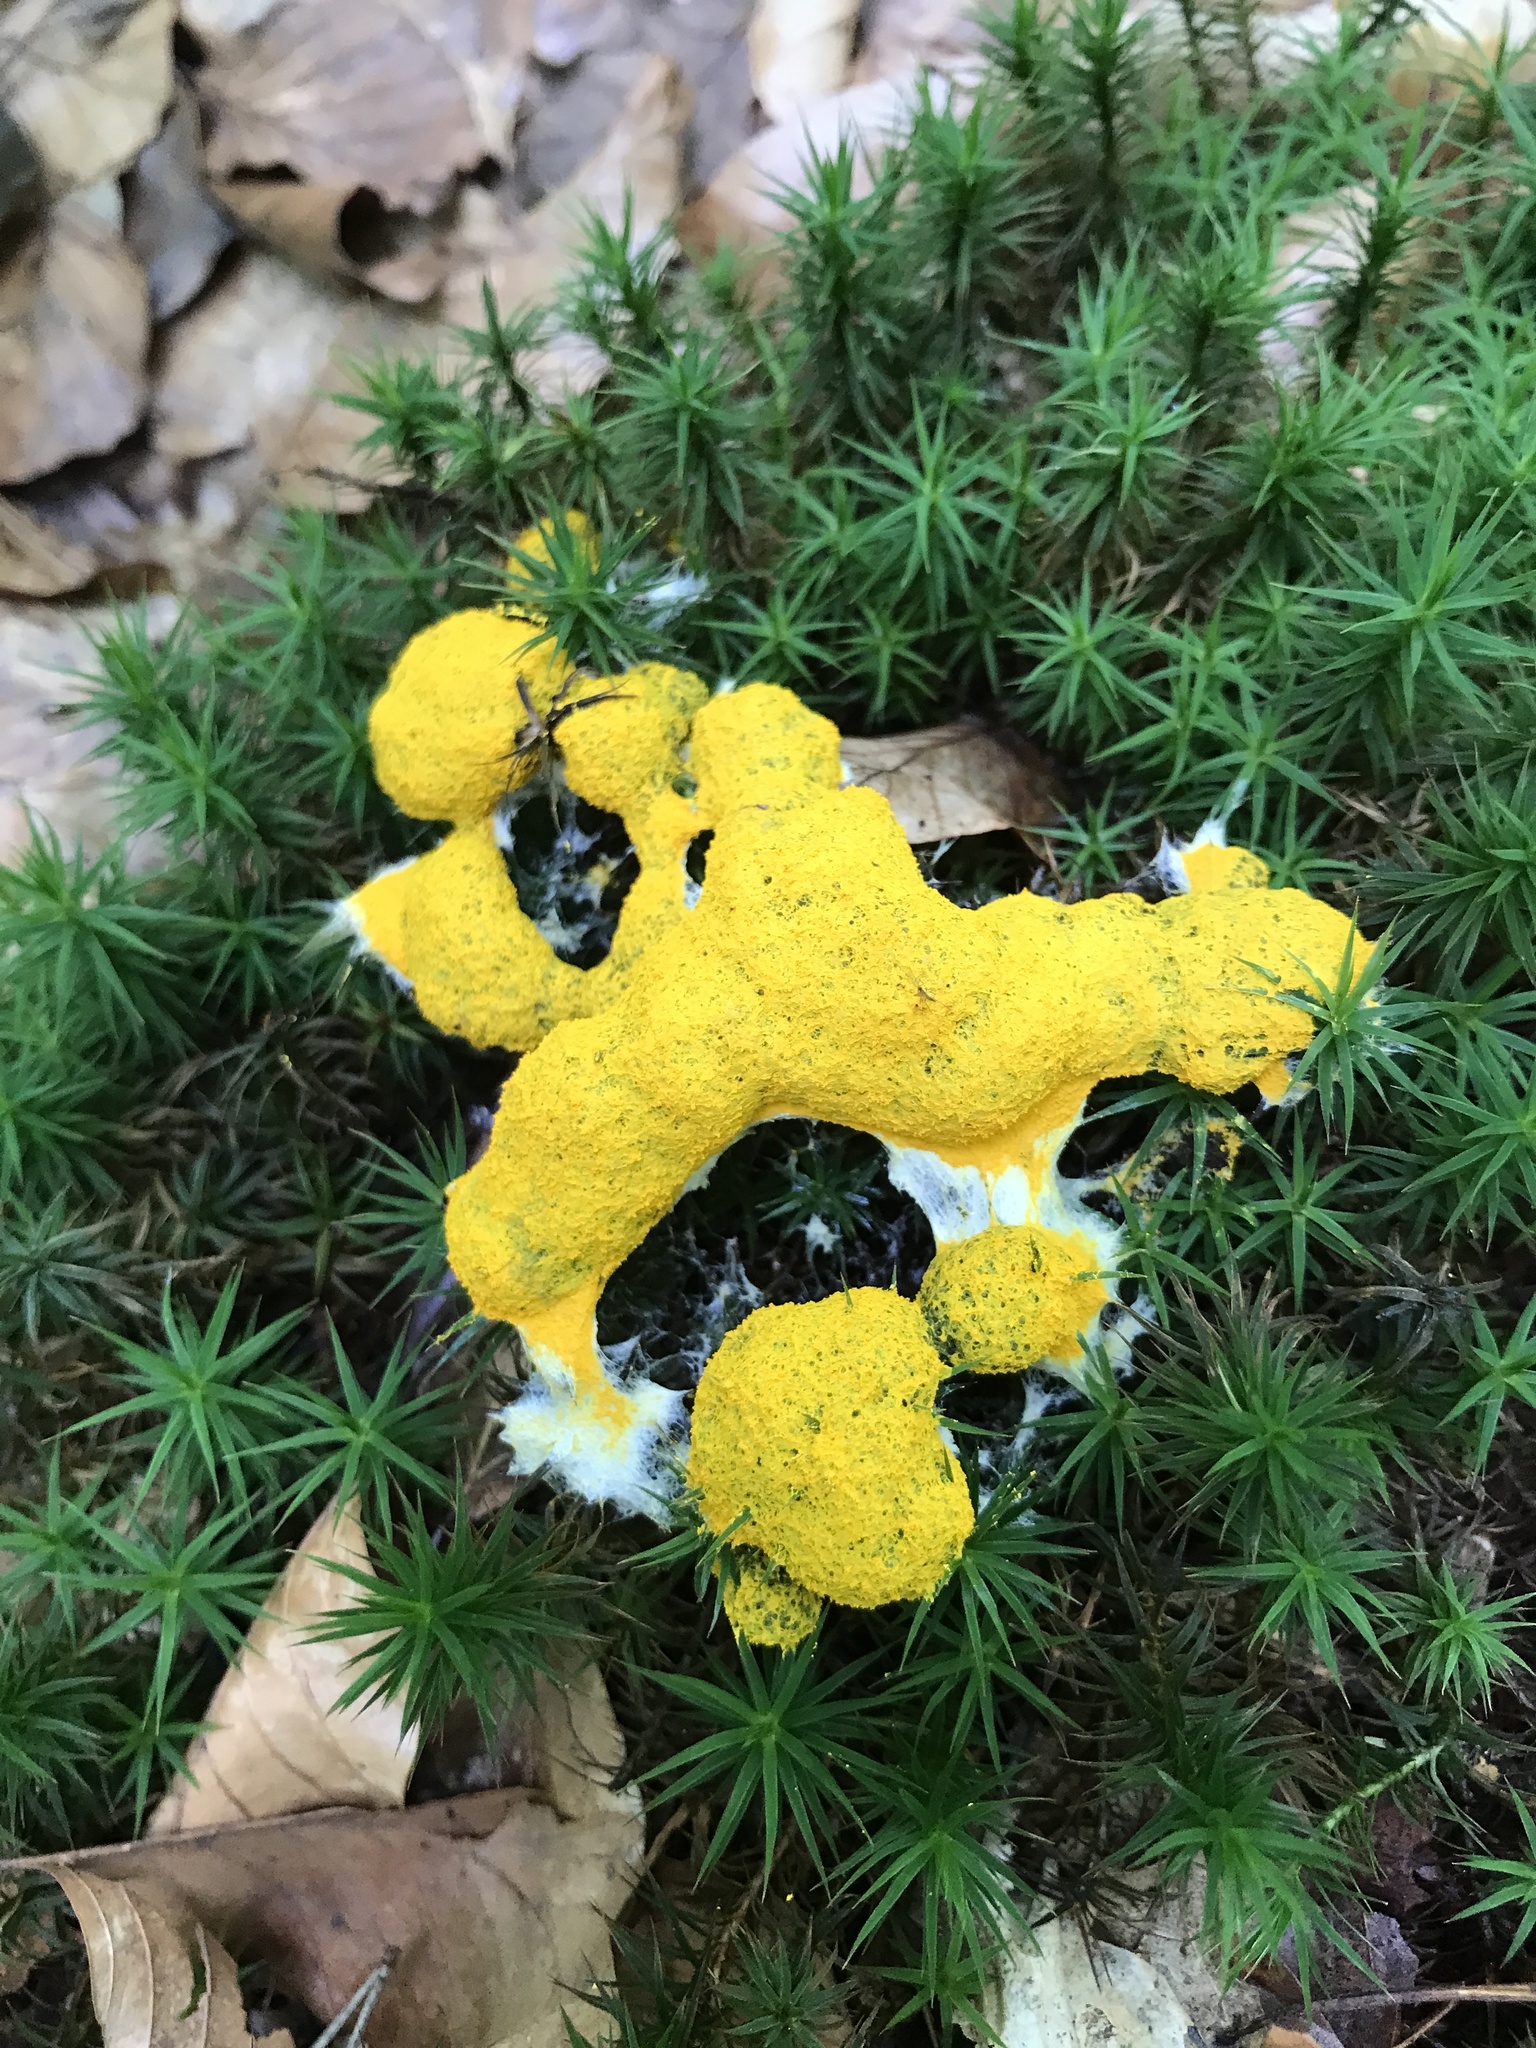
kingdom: Protozoa
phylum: Mycetozoa
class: Myxomycetes
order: Physarales
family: Physaraceae
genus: Fuligo
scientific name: Fuligo septica
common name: Dog vomit slime mold
